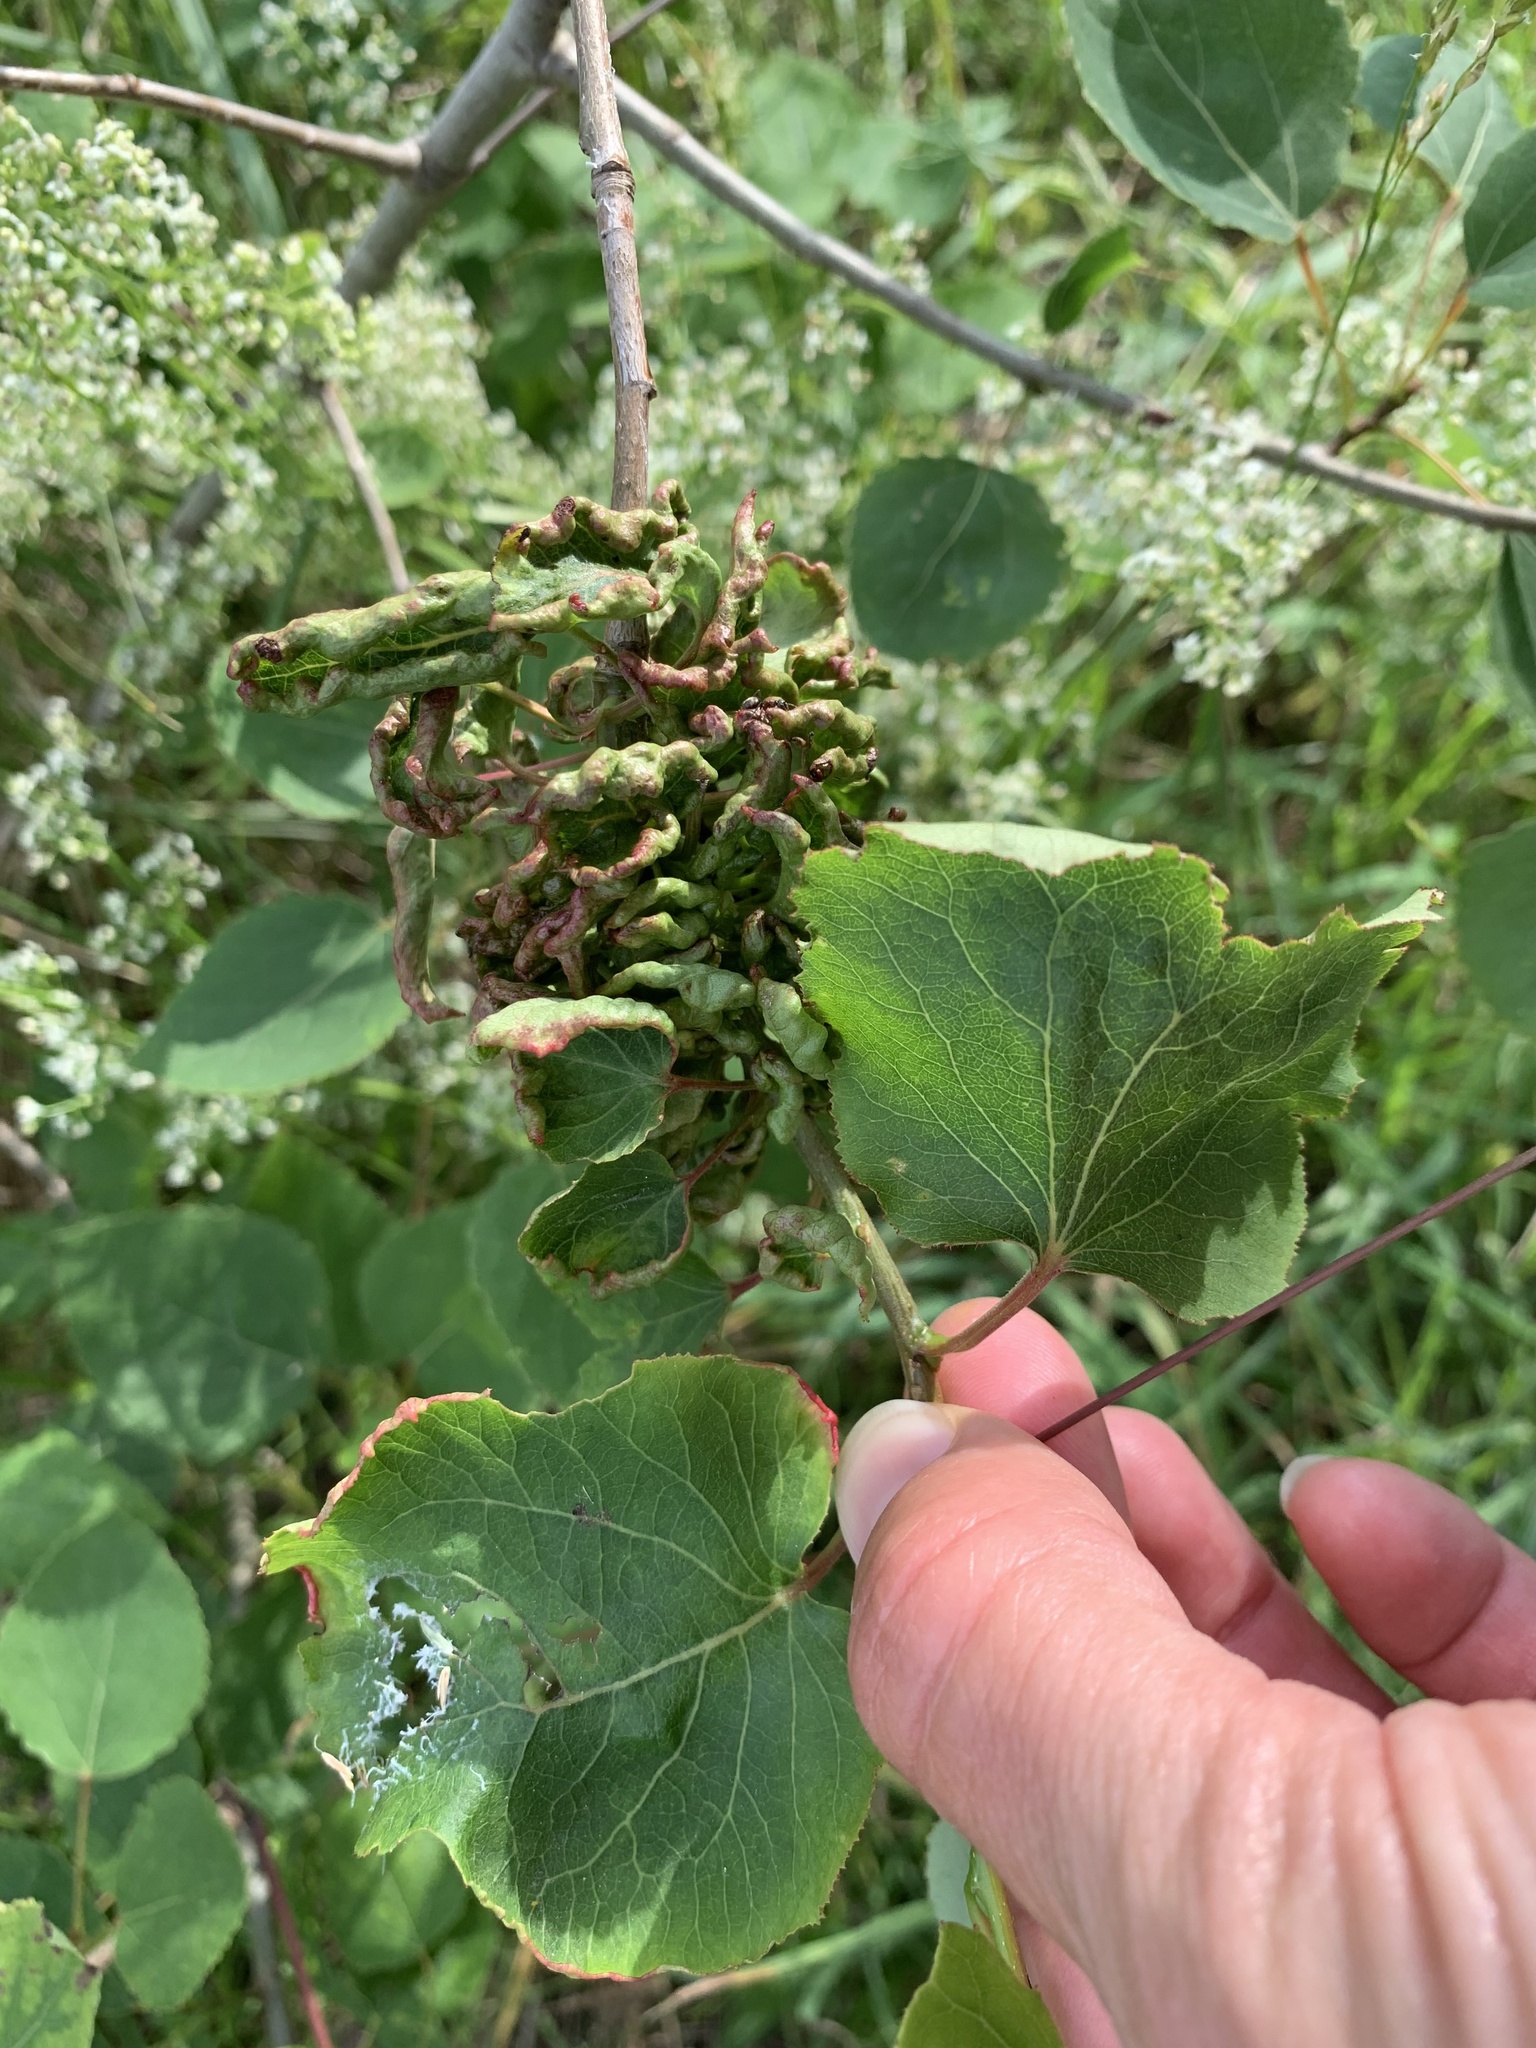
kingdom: Animalia
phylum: Arthropoda
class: Arachnida
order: Trombidiformes
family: Eriophyidae
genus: Aceria
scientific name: Aceria dispar
